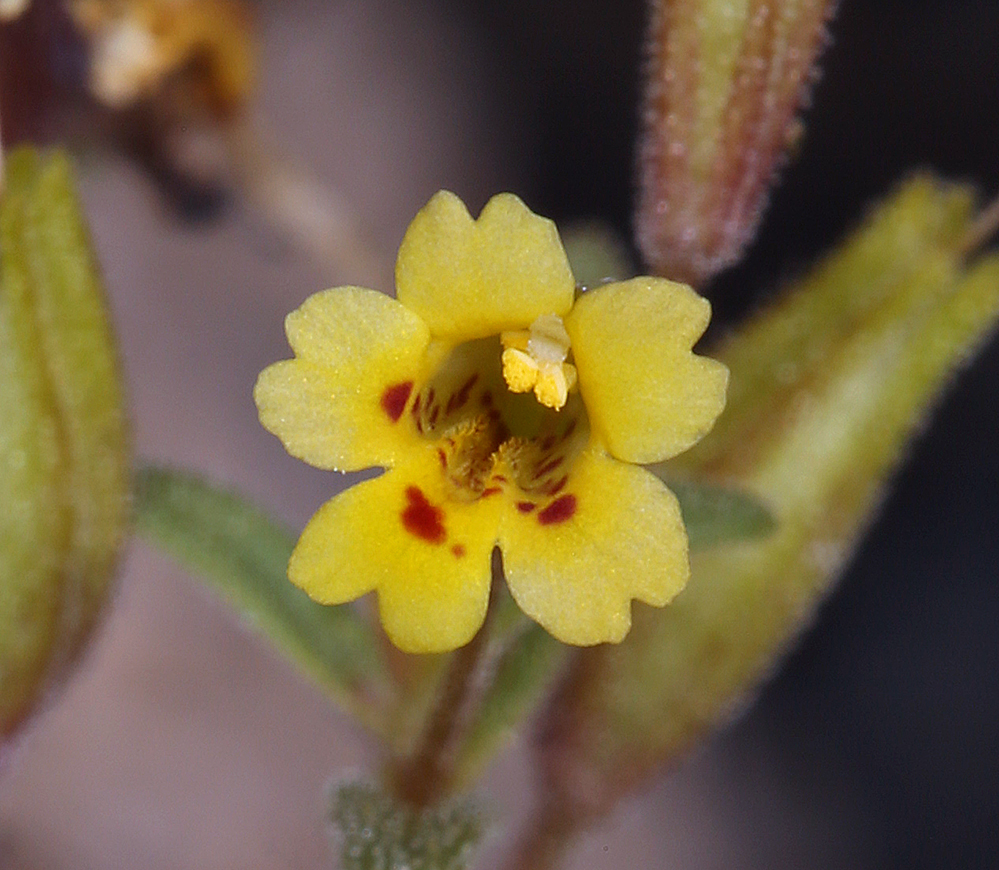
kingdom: Plantae
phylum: Tracheophyta
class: Magnoliopsida
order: Lamiales
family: Phrymaceae
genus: Erythranthe
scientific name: Erythranthe rubella
